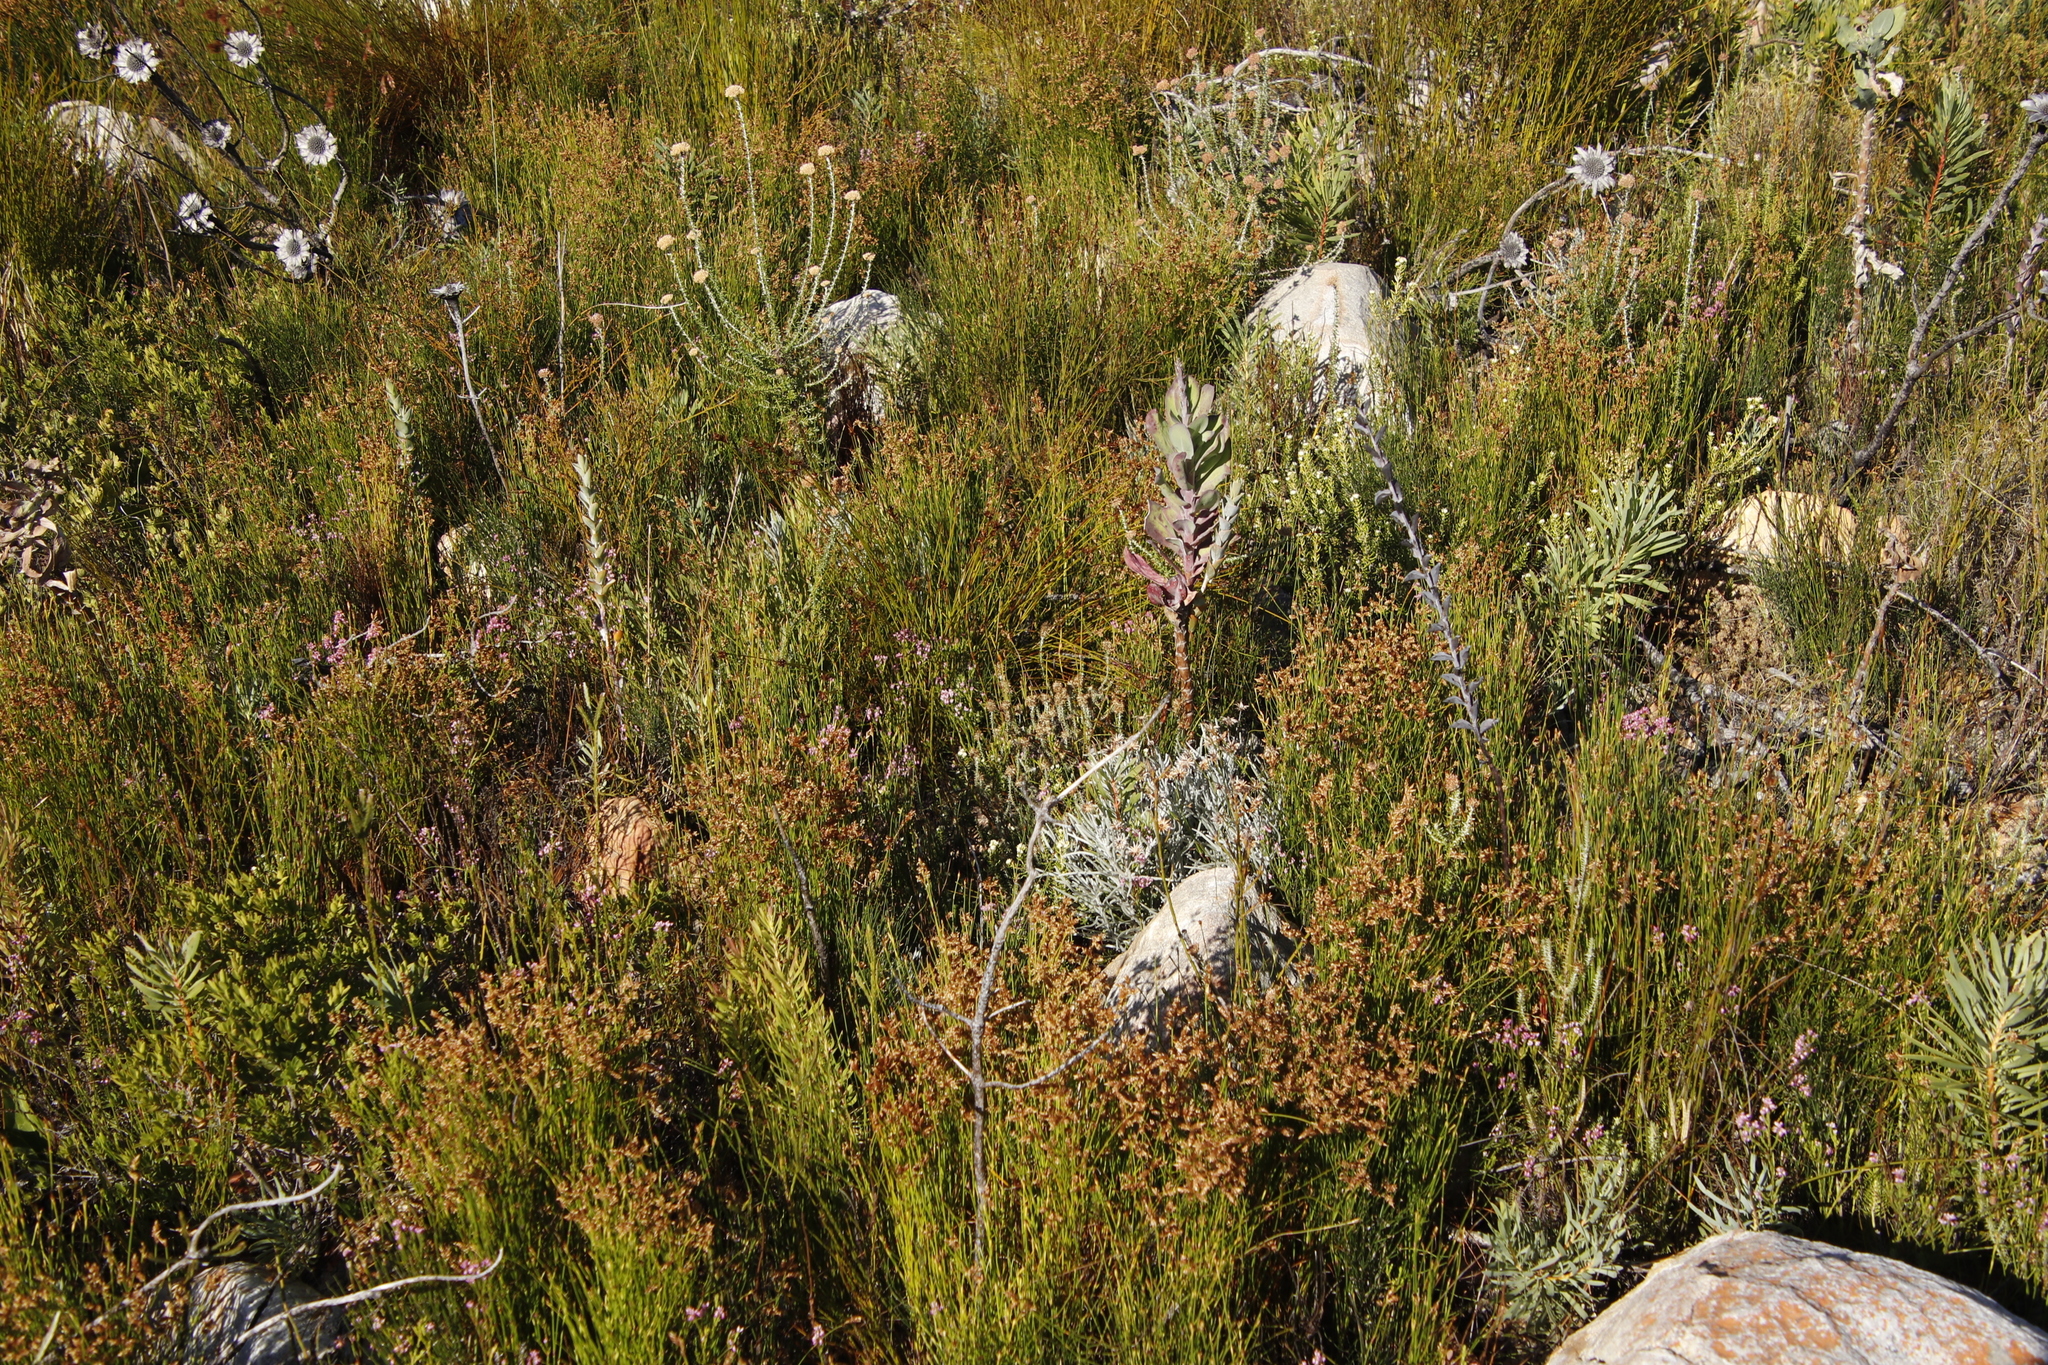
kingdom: Plantae
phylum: Tracheophyta
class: Magnoliopsida
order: Ericales
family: Ericaceae
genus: Erica
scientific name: Erica corifolia
